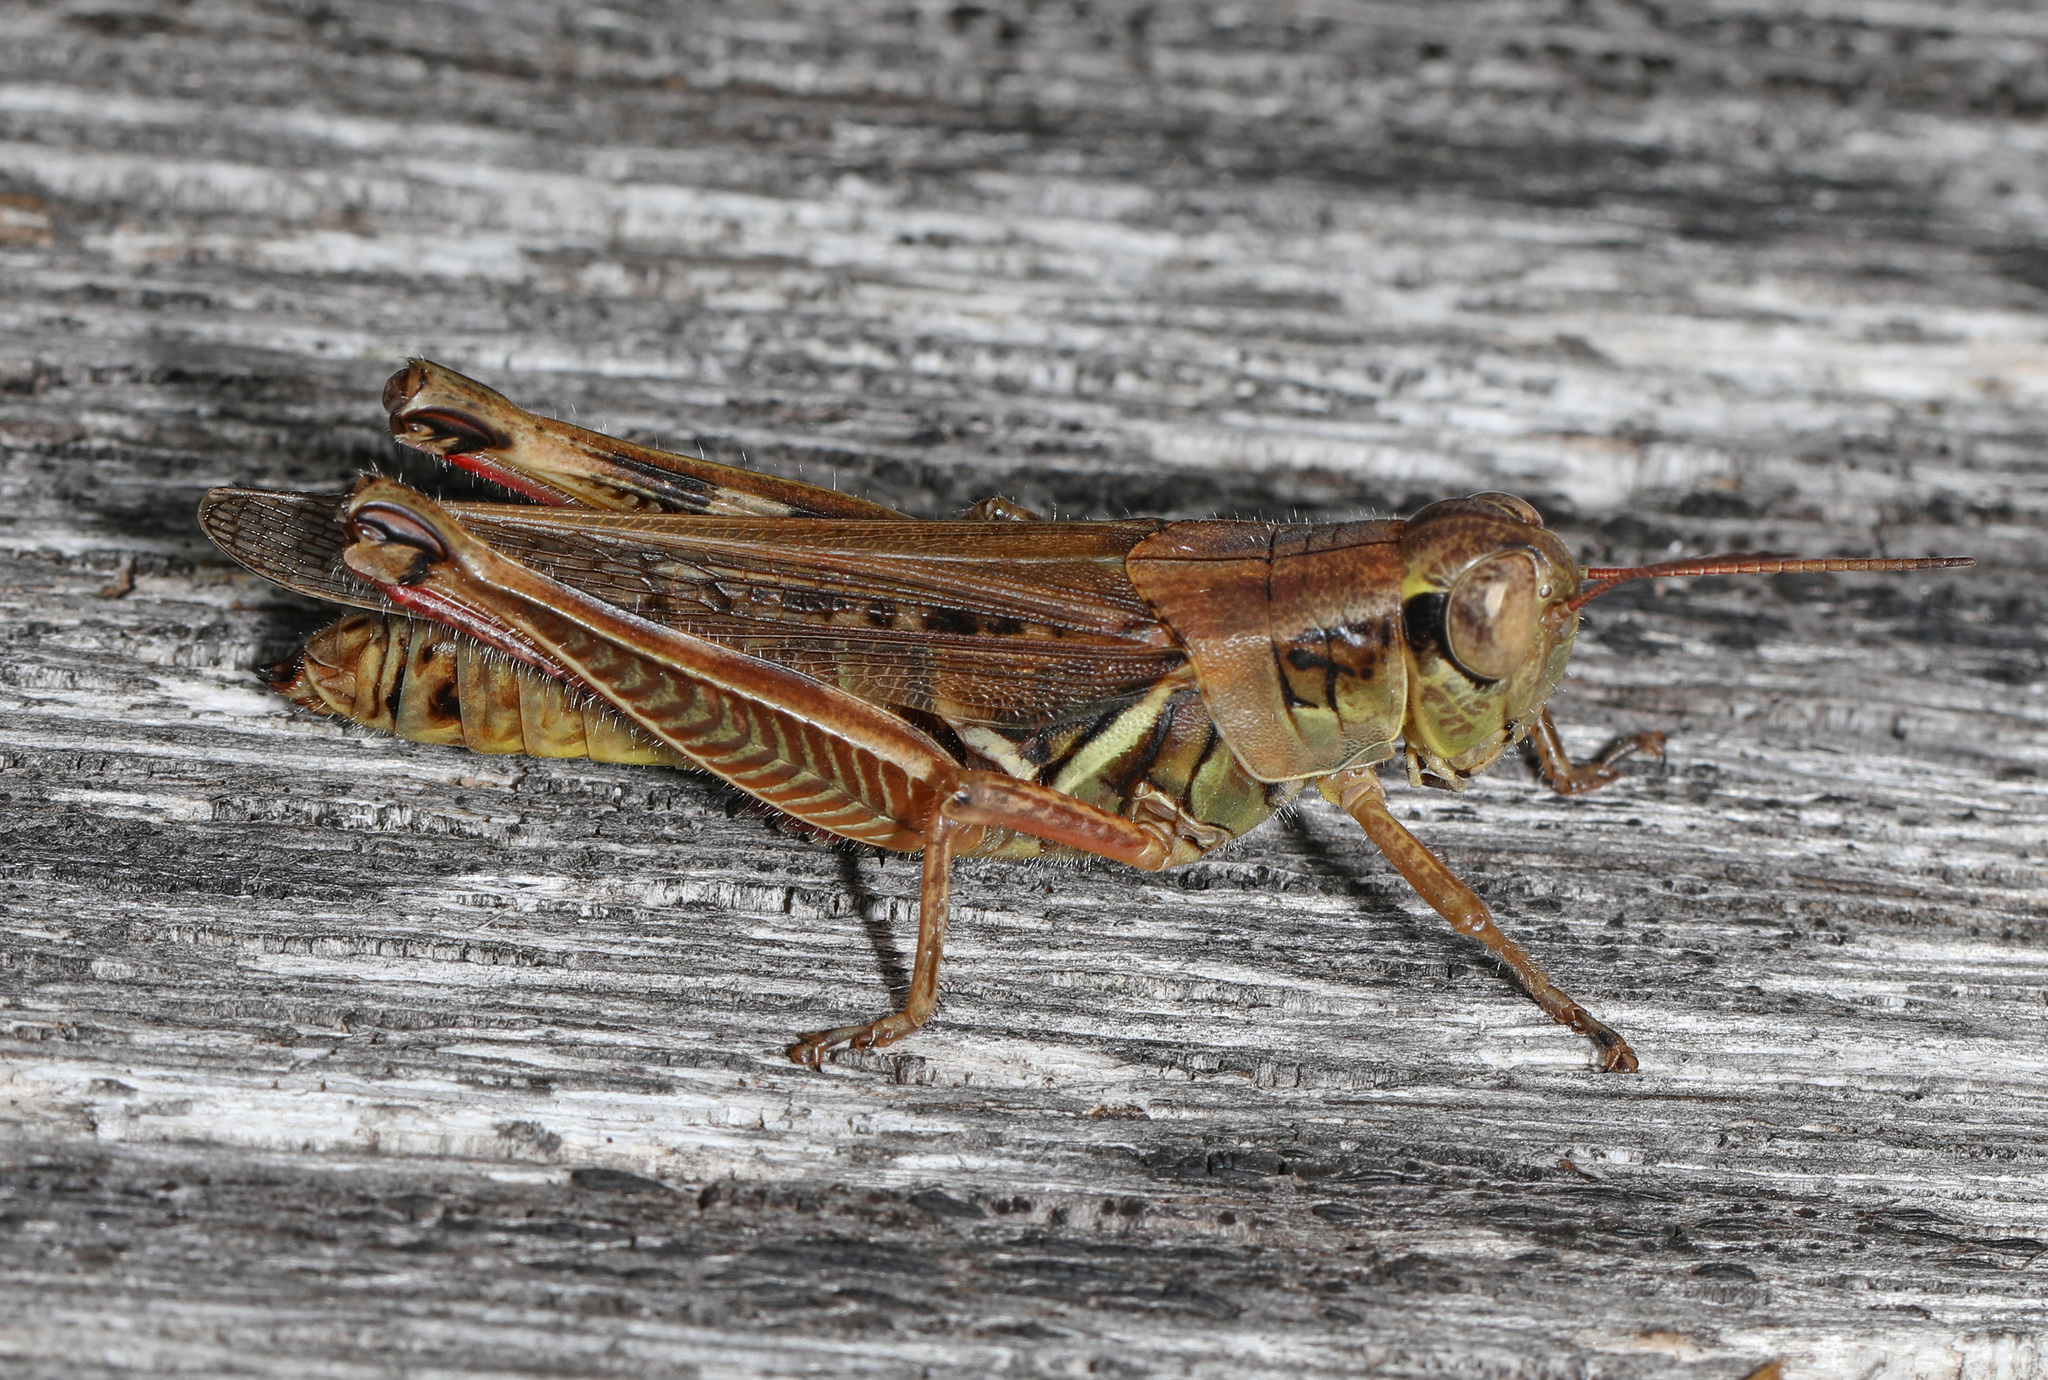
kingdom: Animalia
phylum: Arthropoda
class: Insecta
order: Orthoptera
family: Acrididae
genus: Melanoplus
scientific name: Melanoplus femurrubrum
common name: Red-legged grasshopper
